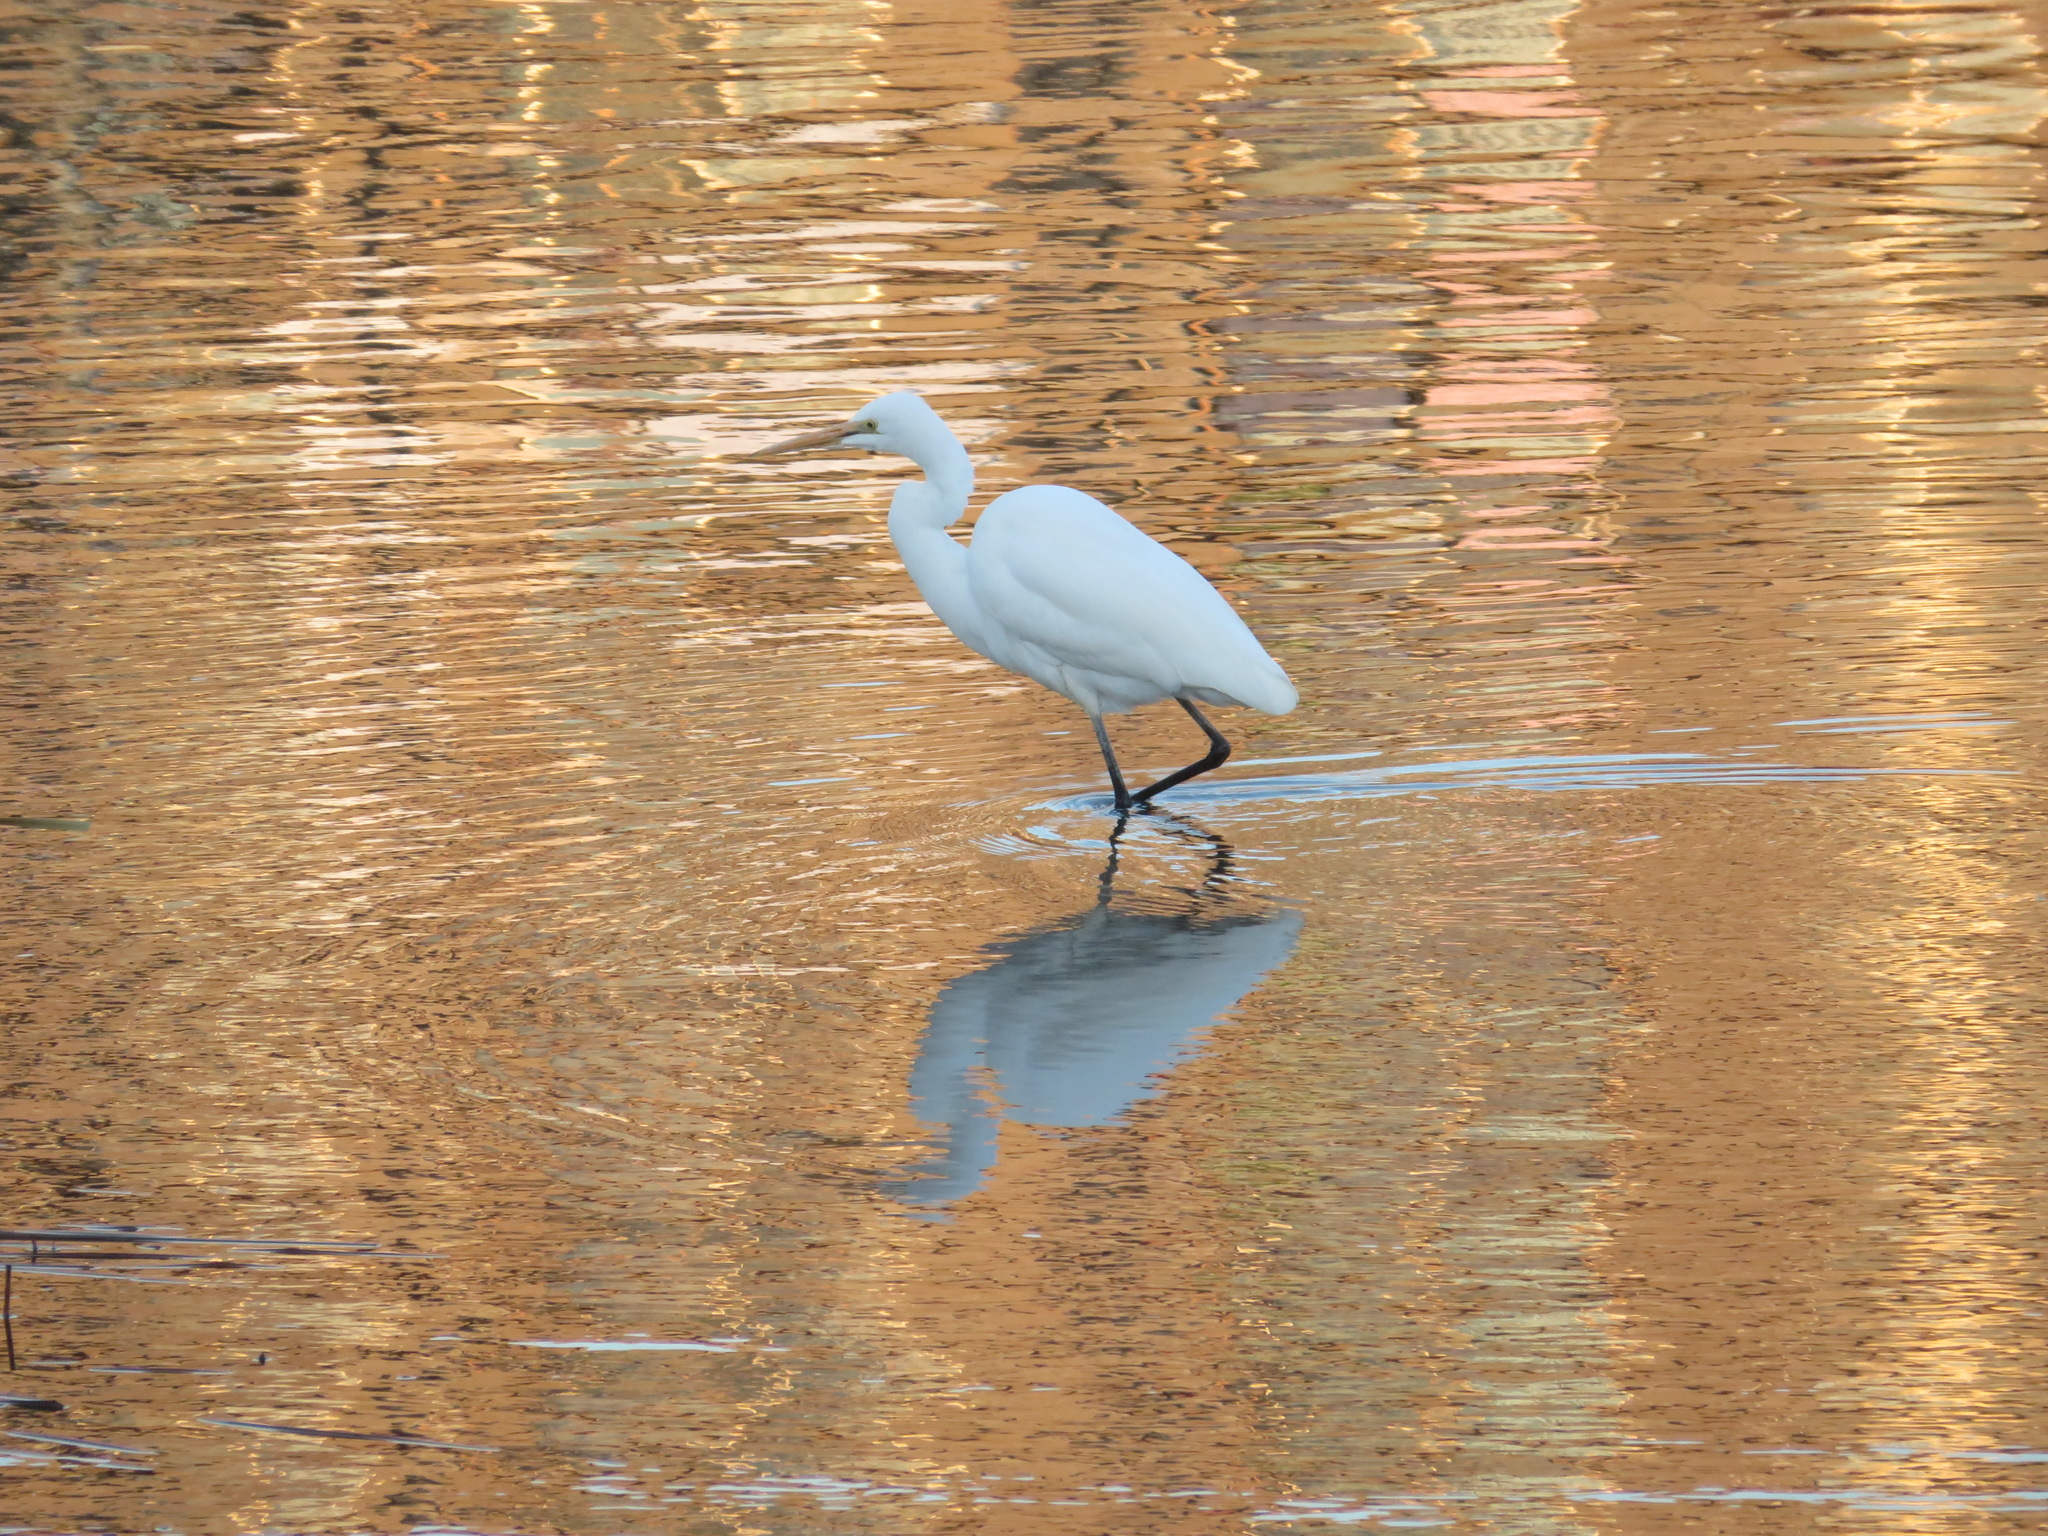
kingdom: Animalia
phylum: Chordata
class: Aves
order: Pelecaniformes
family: Ardeidae
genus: Ardea
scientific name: Ardea modesta
